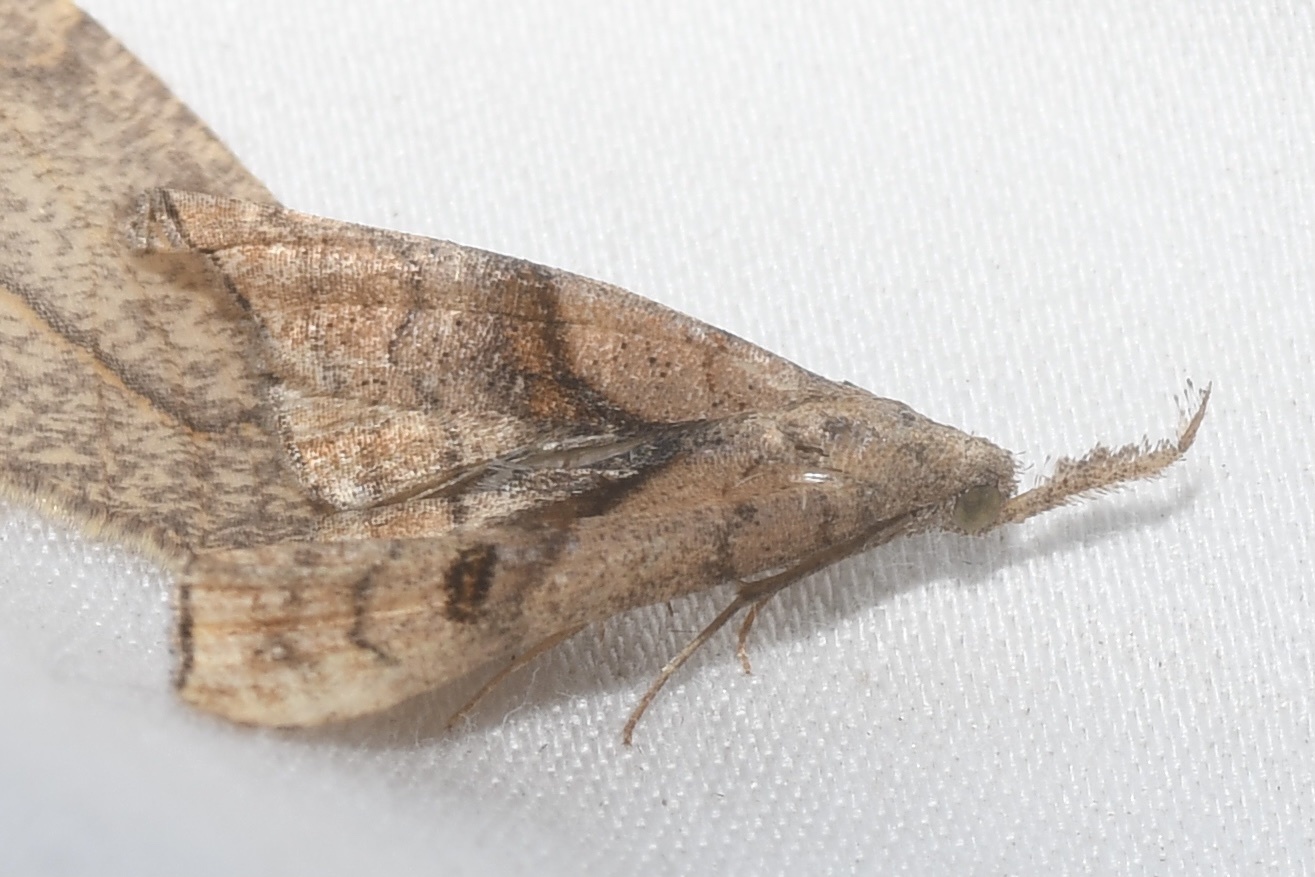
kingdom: Animalia
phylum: Arthropoda
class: Insecta
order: Lepidoptera
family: Erebidae
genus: Palthis
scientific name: Palthis angulalis
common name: Dark-spotted palthis moth
